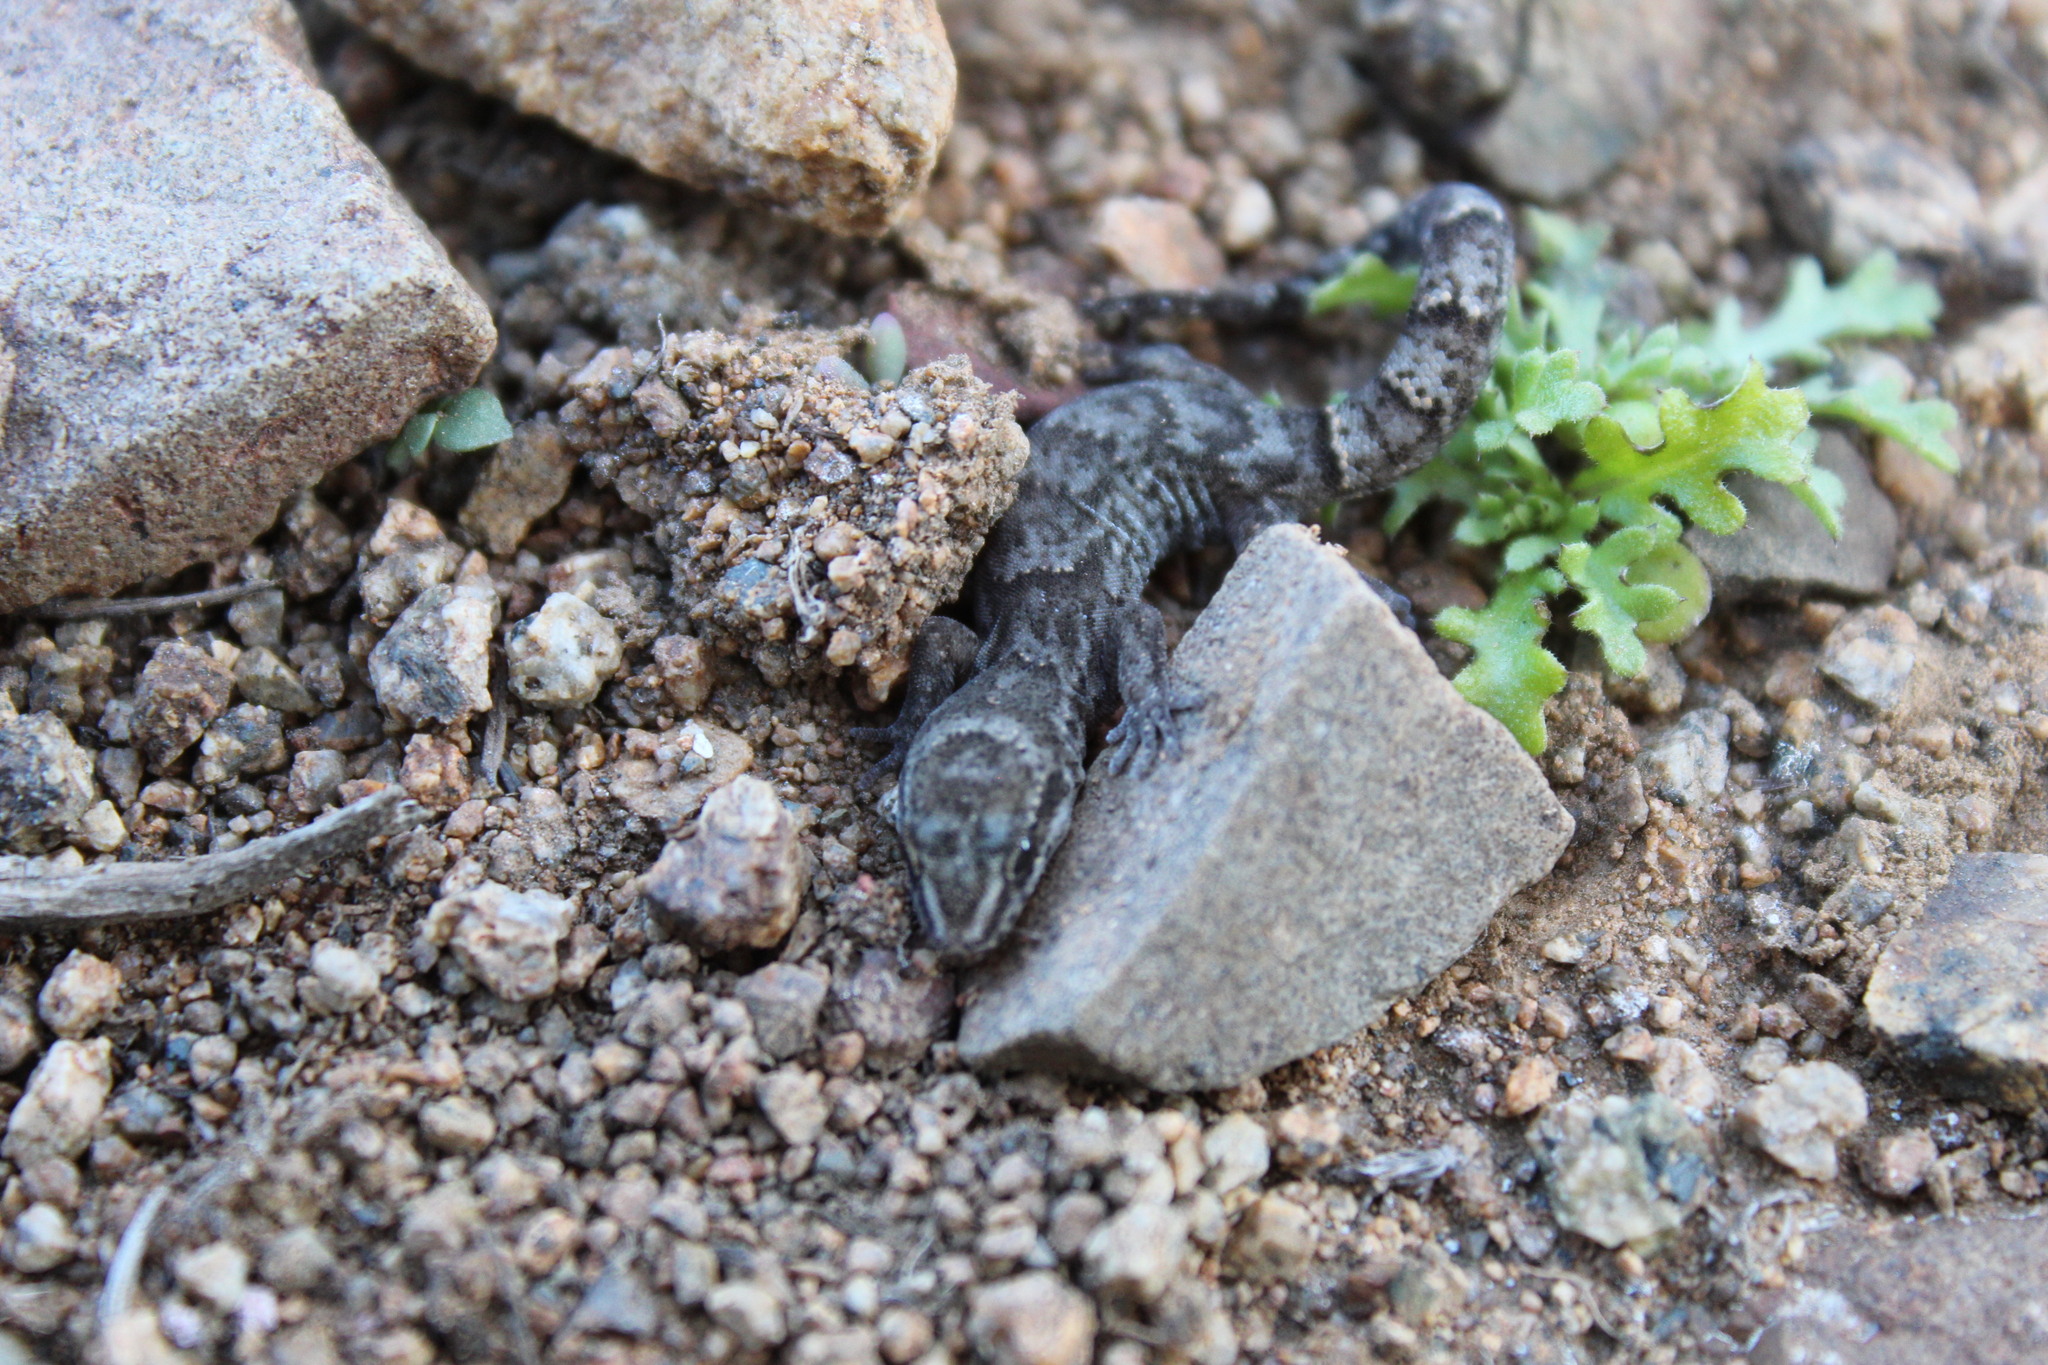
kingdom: Animalia
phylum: Chordata
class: Squamata
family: Phyllodactylidae
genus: Garthia
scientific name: Garthia gaudichaudii
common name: Chilean marked gecko
